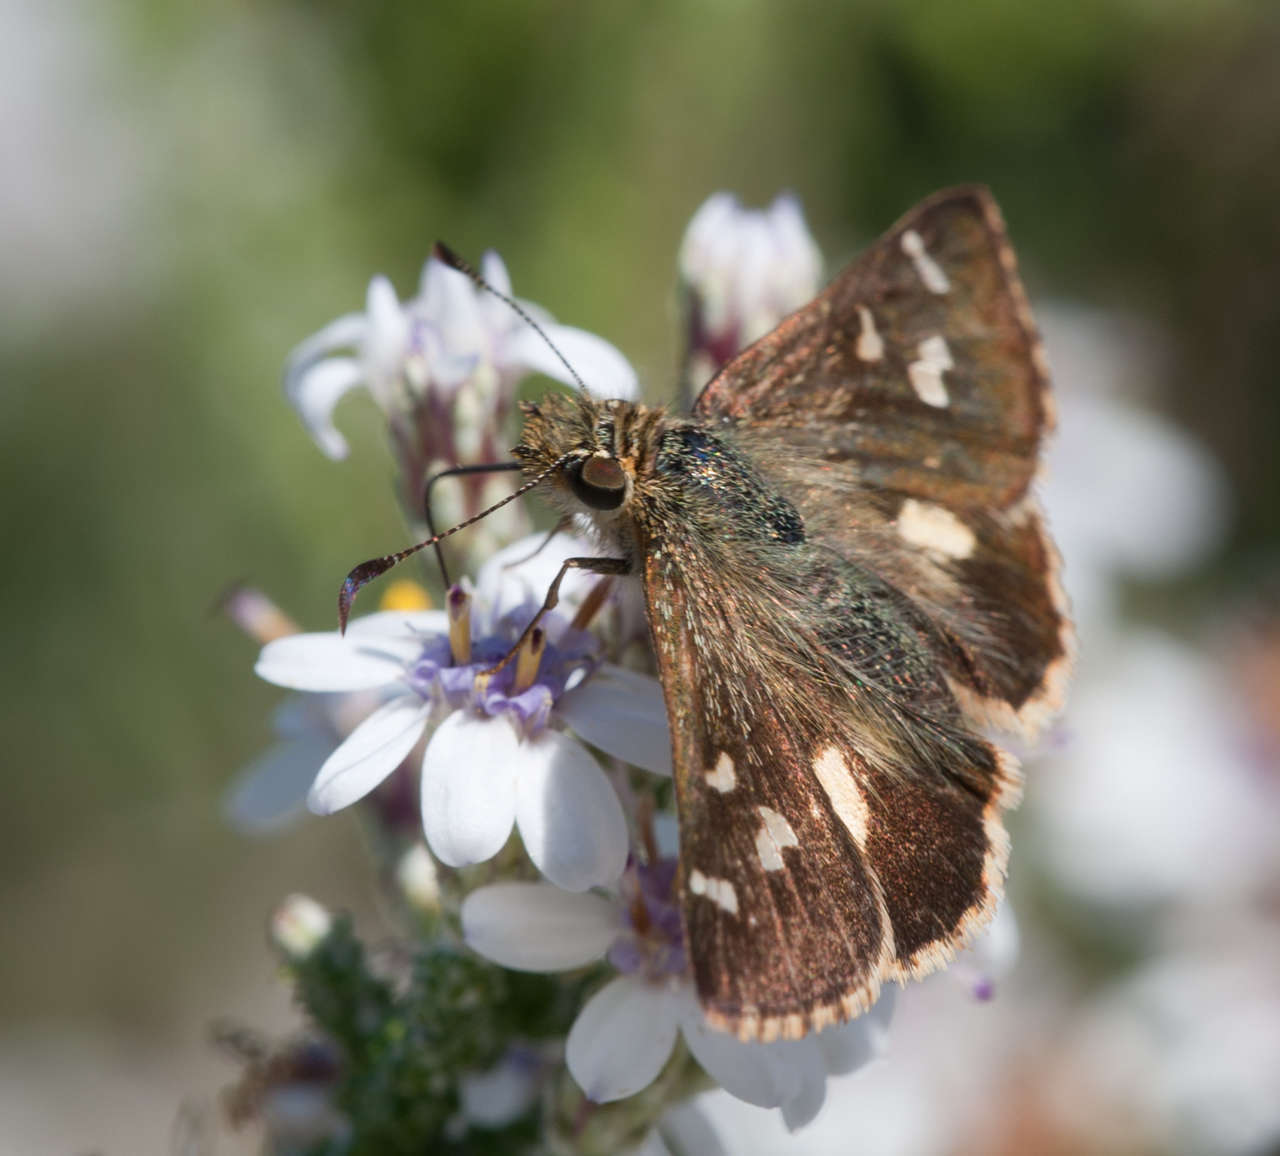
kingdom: Animalia
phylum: Arthropoda
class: Insecta
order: Lepidoptera
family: Hesperiidae
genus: Dispar
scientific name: Dispar compacta
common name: Barred skipper
